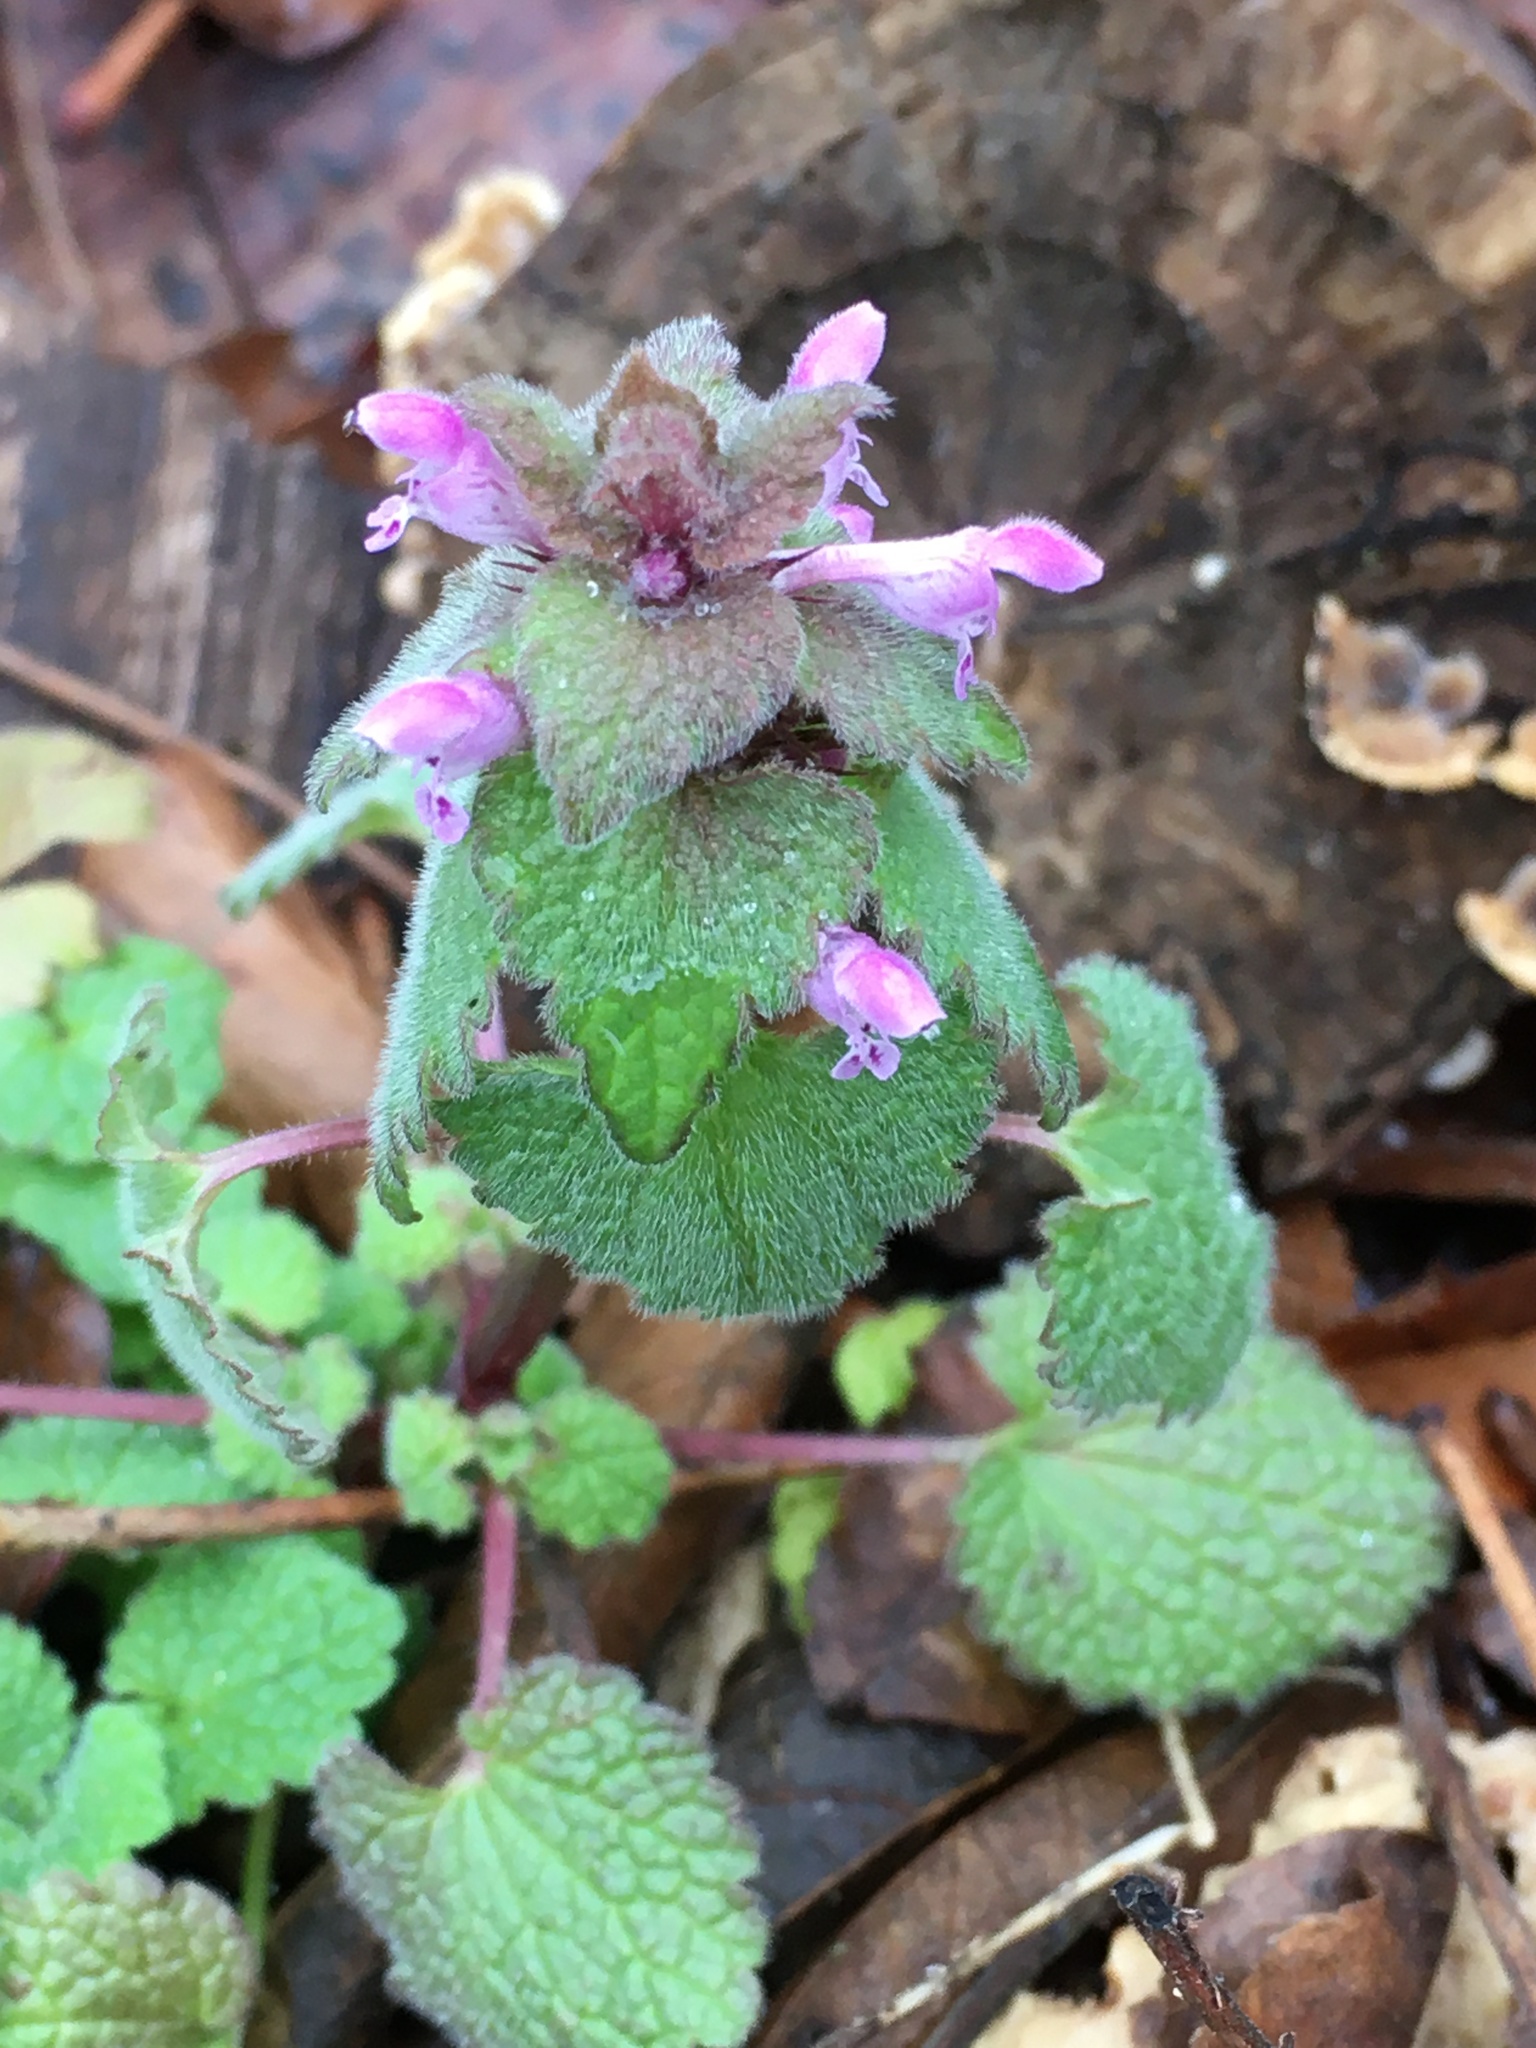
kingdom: Plantae
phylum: Tracheophyta
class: Magnoliopsida
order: Lamiales
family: Lamiaceae
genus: Lamium
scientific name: Lamium purpureum
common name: Red dead-nettle
